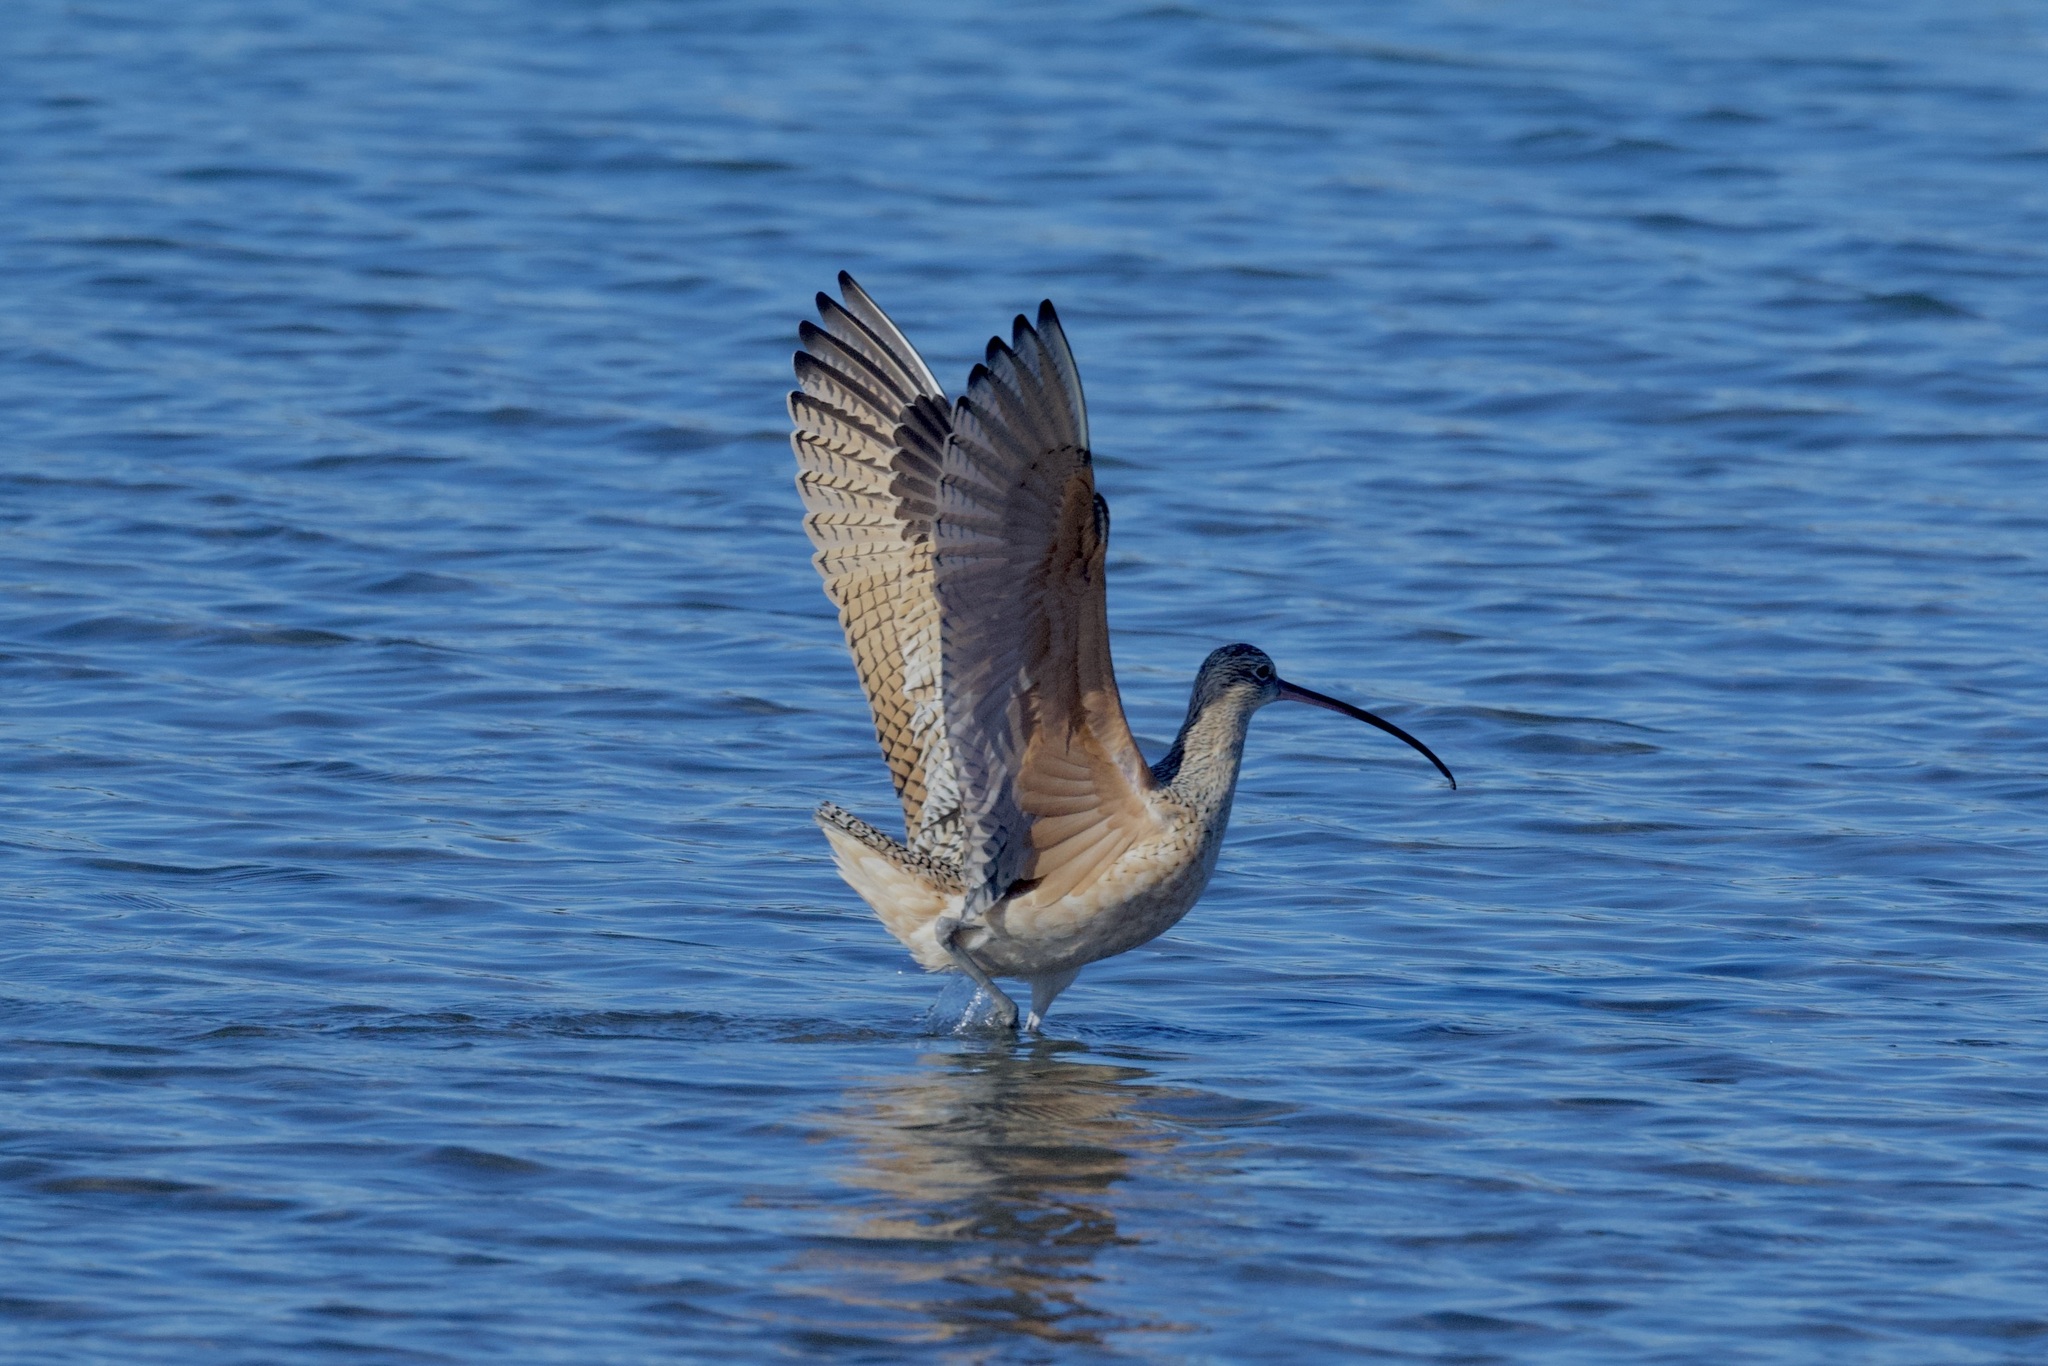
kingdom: Animalia
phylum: Chordata
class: Aves
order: Charadriiformes
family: Scolopacidae
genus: Numenius
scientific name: Numenius americanus
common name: Long-billed curlew
